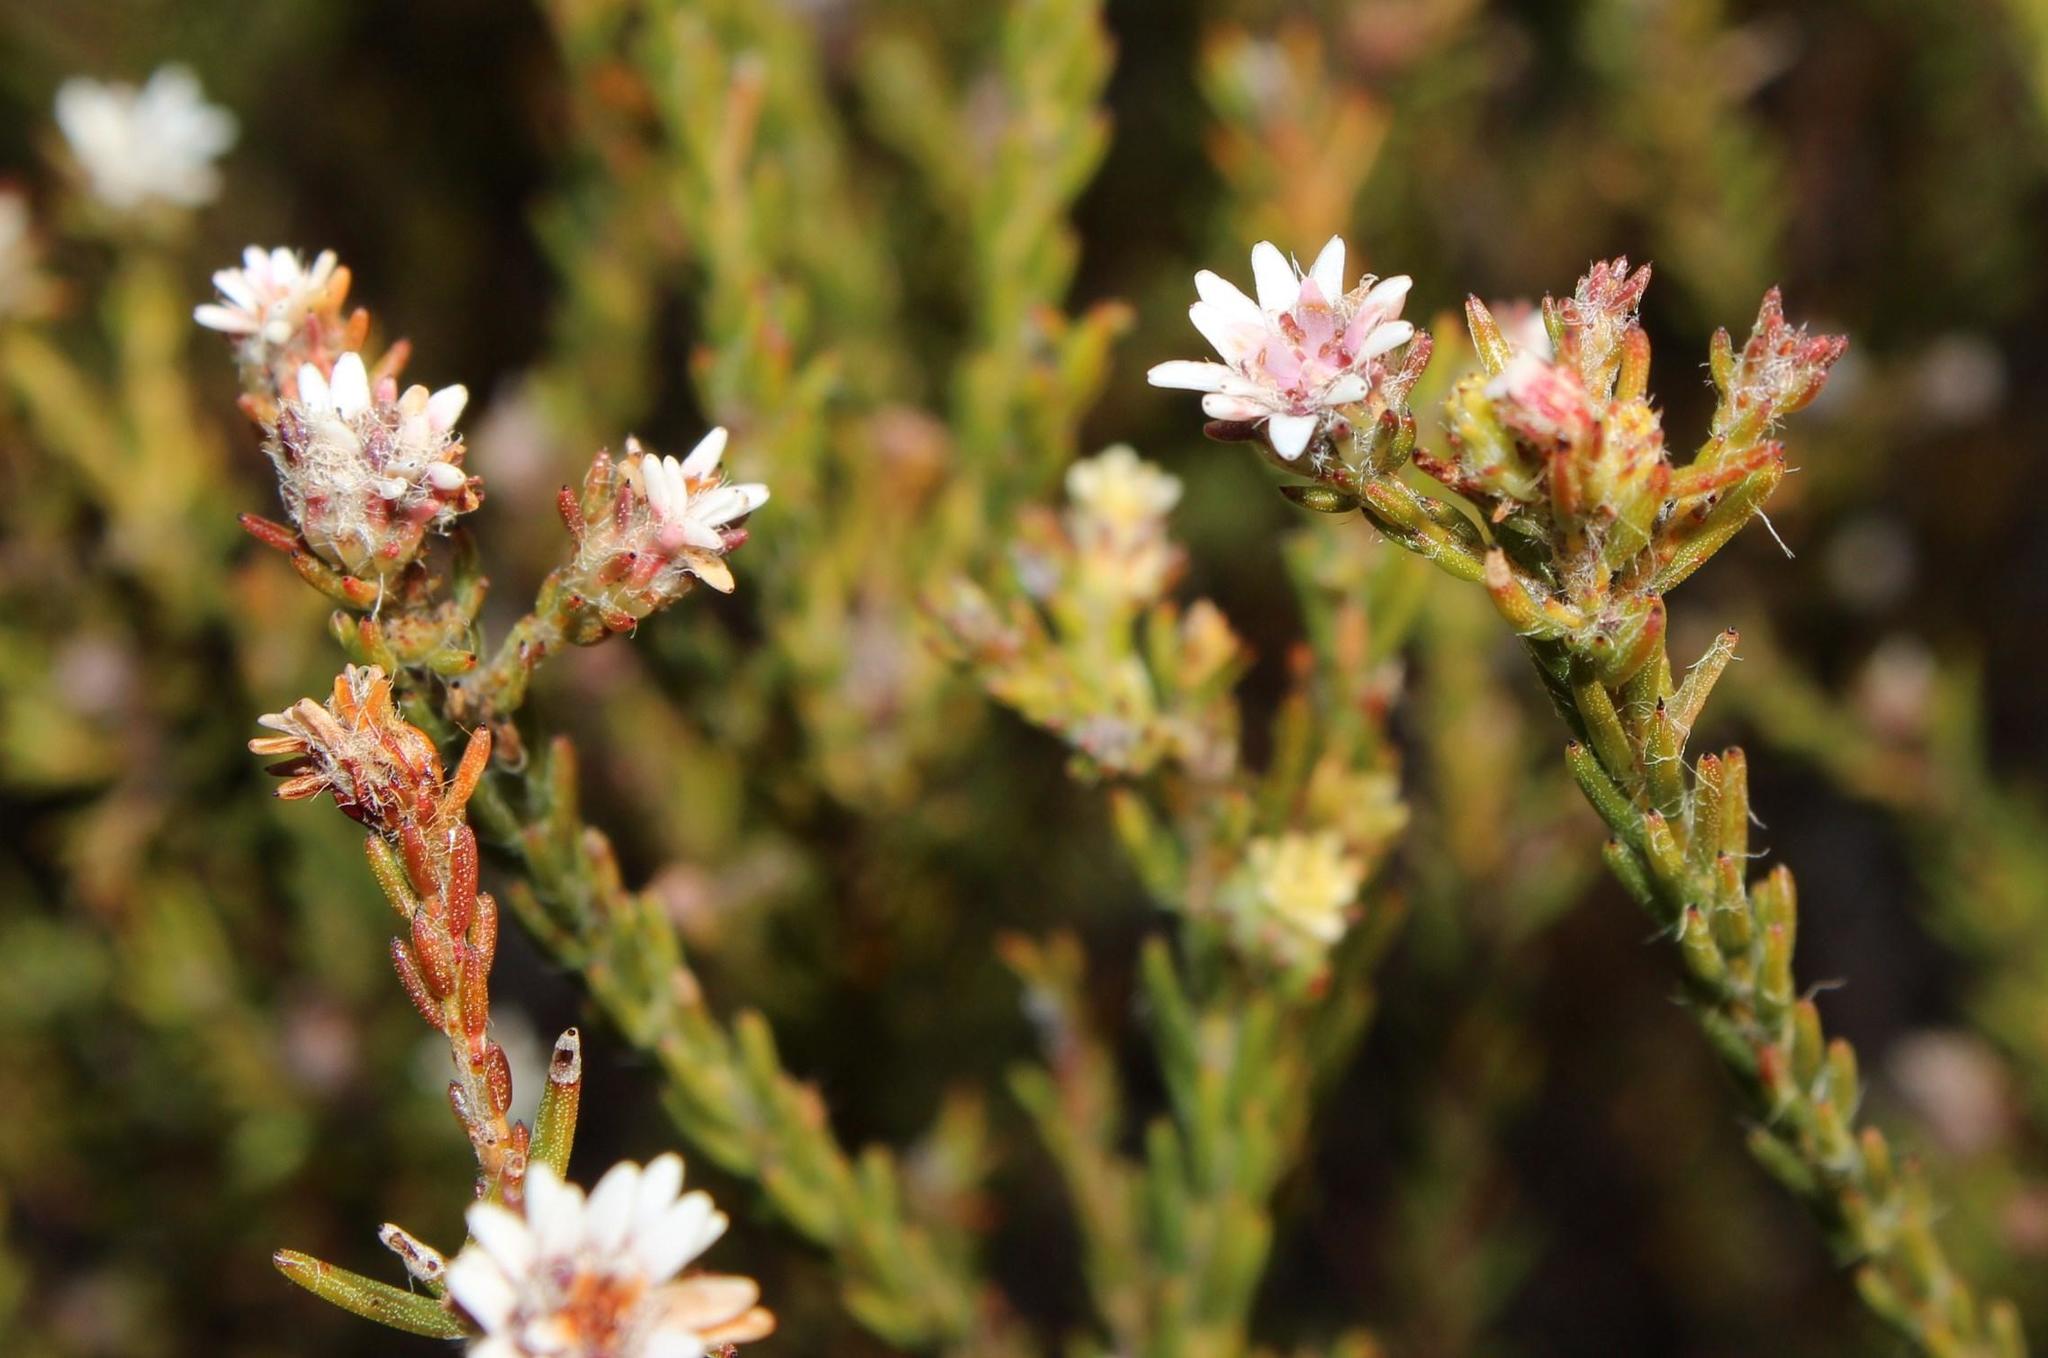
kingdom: Plantae
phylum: Tracheophyta
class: Magnoliopsida
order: Bruniales
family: Bruniaceae
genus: Staavia
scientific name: Staavia radiata
